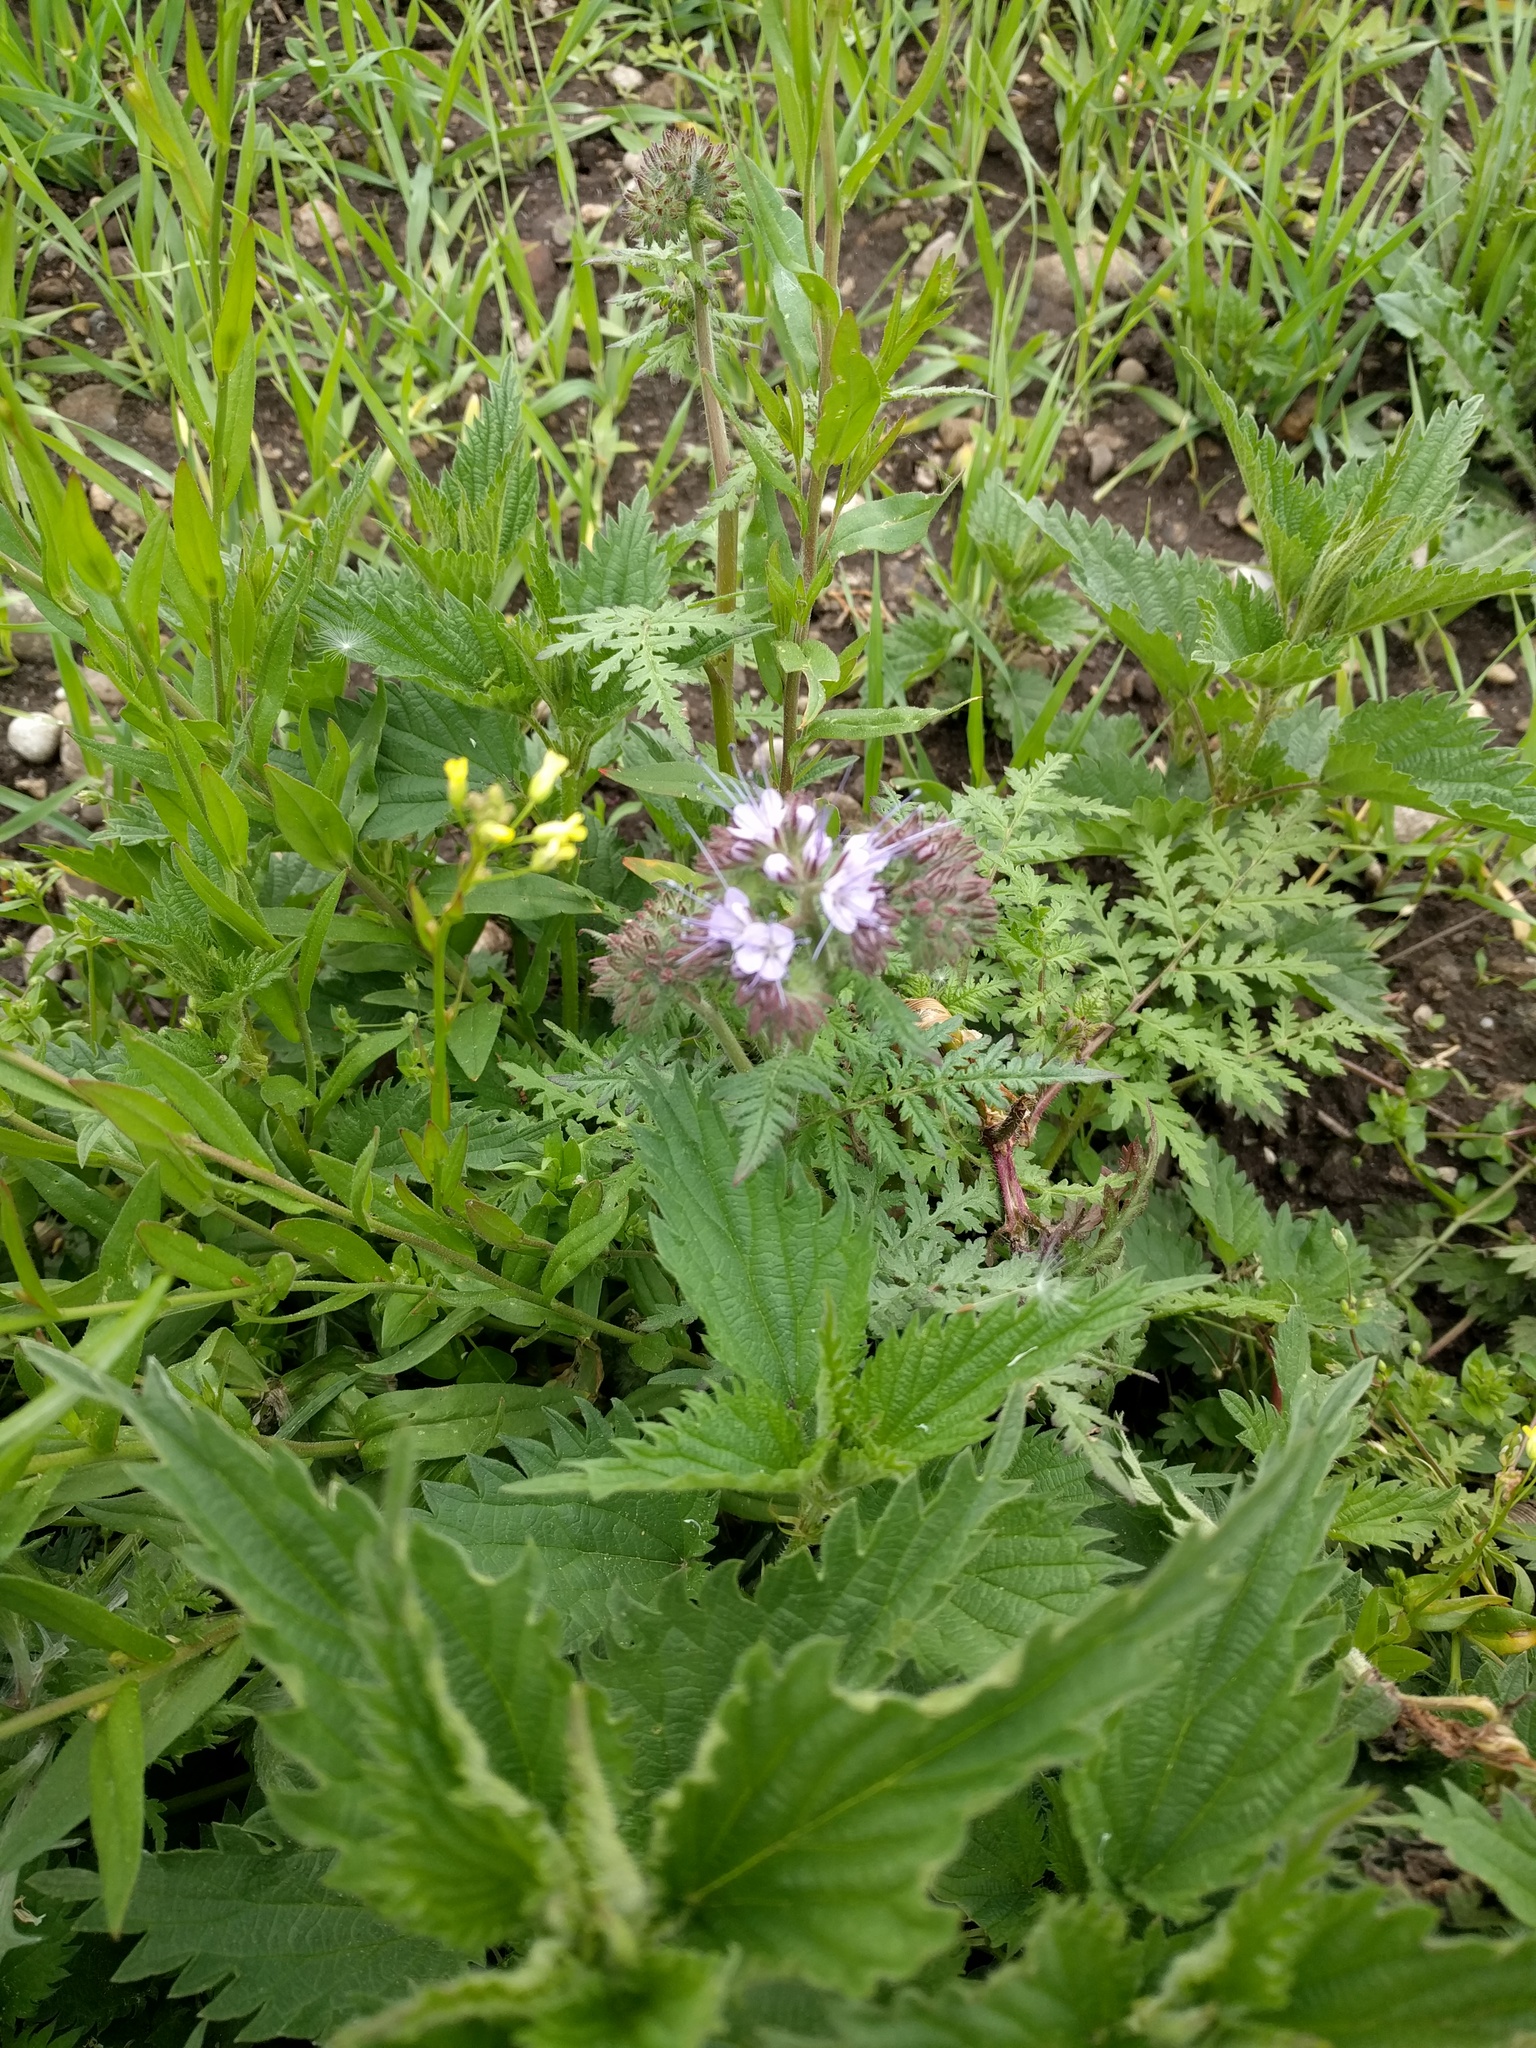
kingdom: Plantae
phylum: Tracheophyta
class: Magnoliopsida
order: Boraginales
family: Hydrophyllaceae
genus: Phacelia
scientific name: Phacelia tanacetifolia
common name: Phacelia
